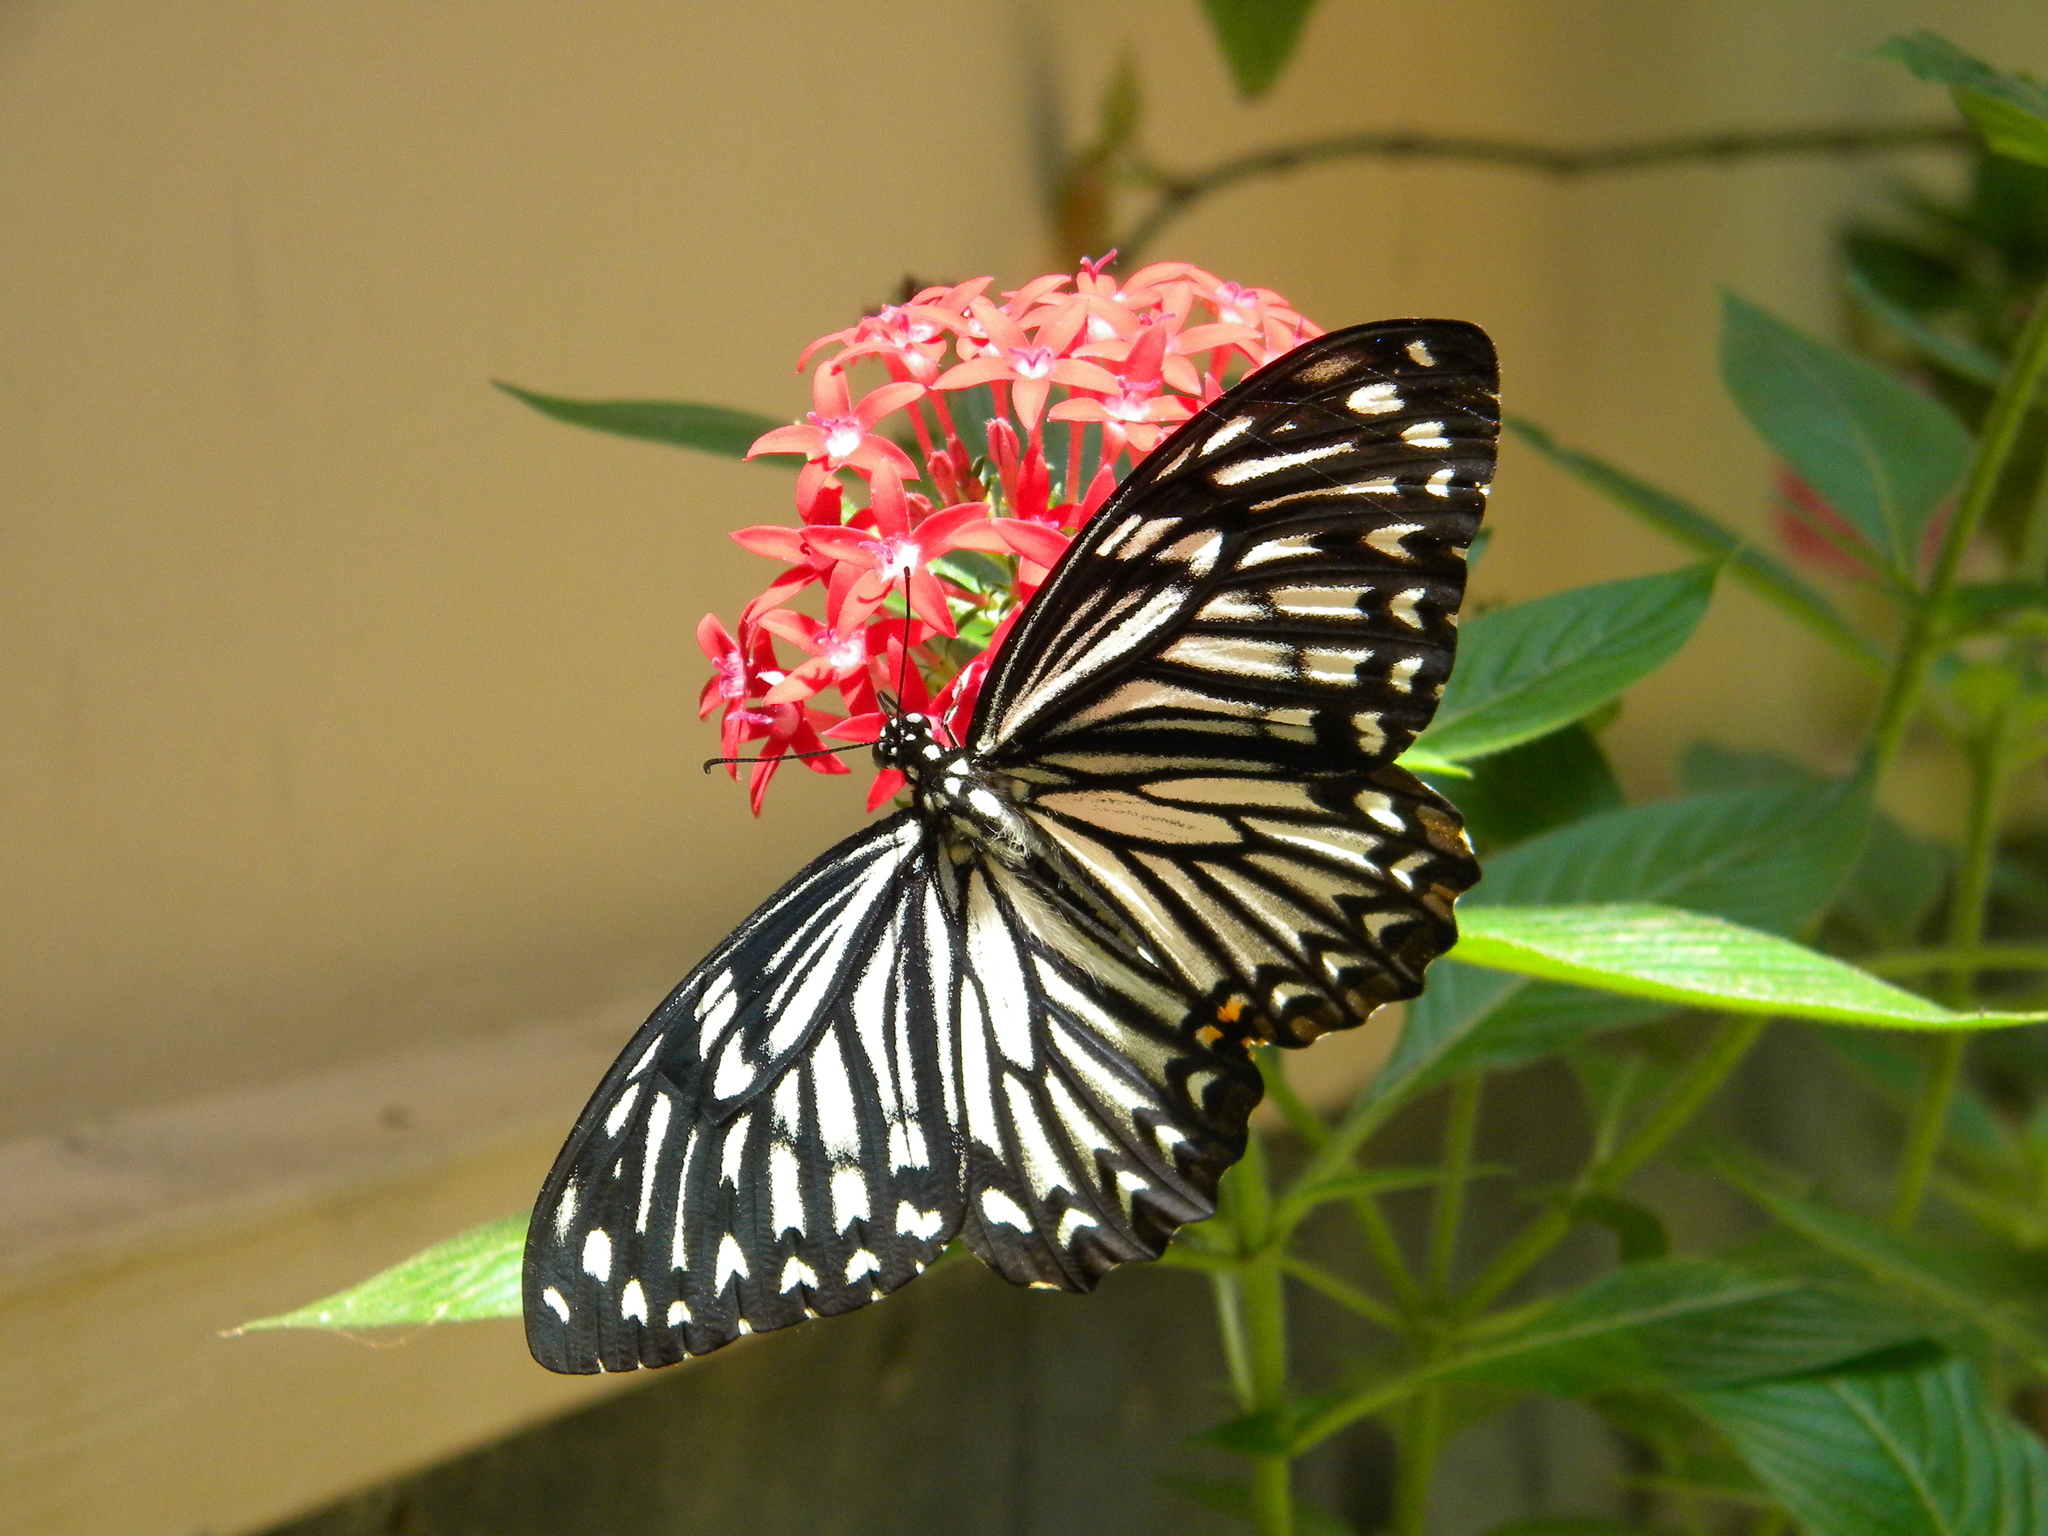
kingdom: Animalia
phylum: Arthropoda
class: Insecta
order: Lepidoptera
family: Papilionidae
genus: Chilasa
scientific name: Chilasa clytia
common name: Common mime
